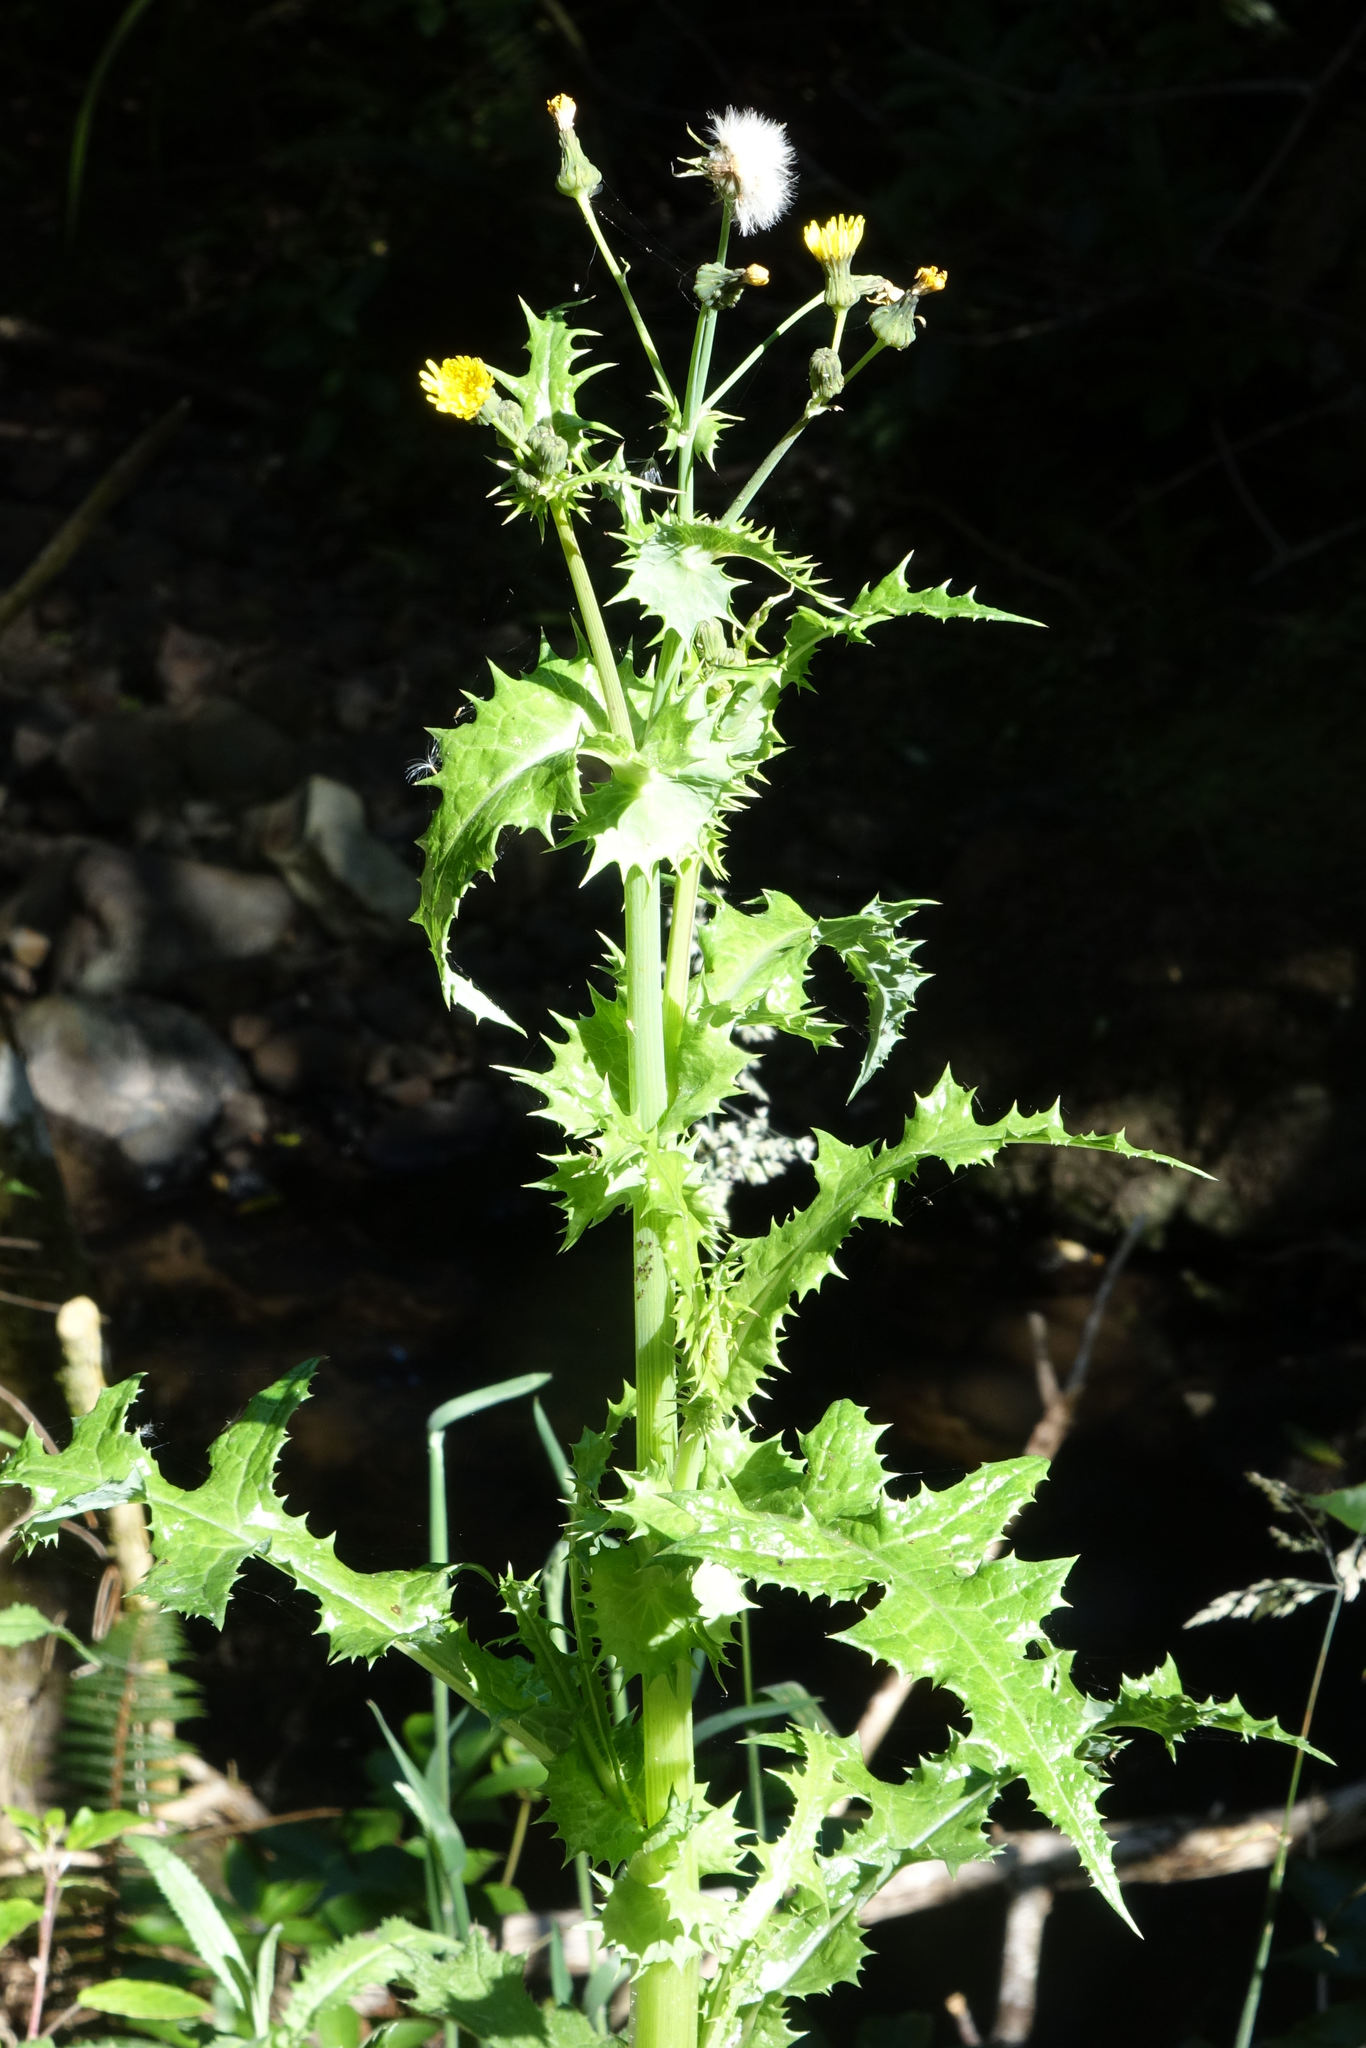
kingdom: Plantae
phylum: Tracheophyta
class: Magnoliopsida
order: Asterales
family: Asteraceae
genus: Sonchus
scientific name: Sonchus asper
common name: Prickly sow-thistle
